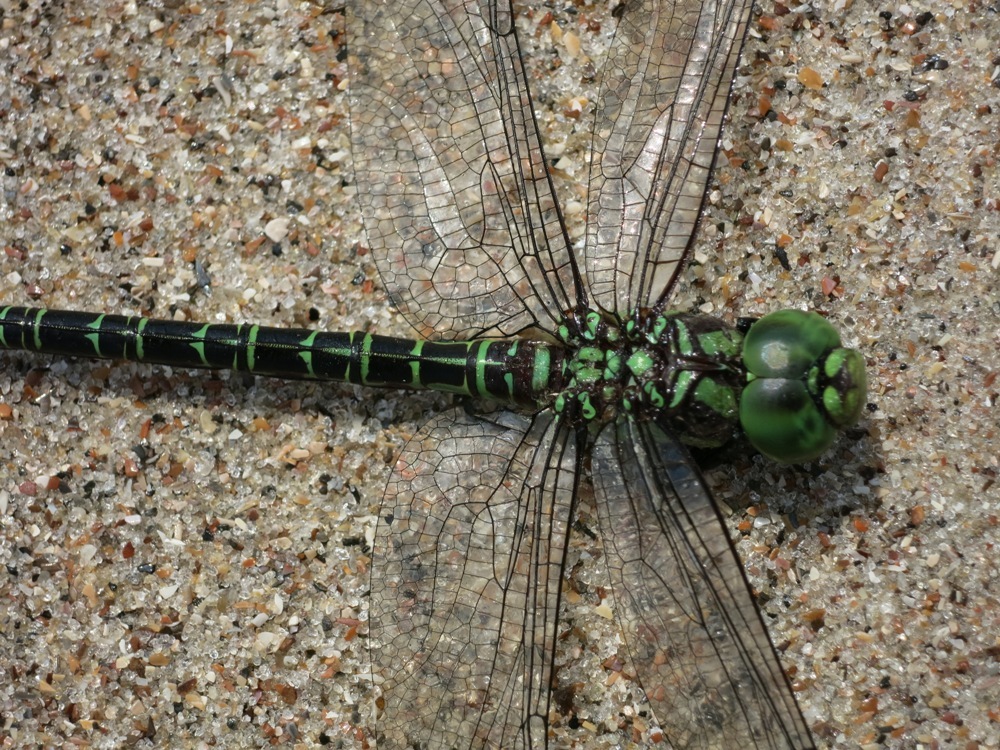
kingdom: Animalia
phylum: Arthropoda
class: Insecta
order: Odonata
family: Aeshnidae
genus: Coryphaeschna
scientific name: Coryphaeschna ingens
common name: Regal darner
